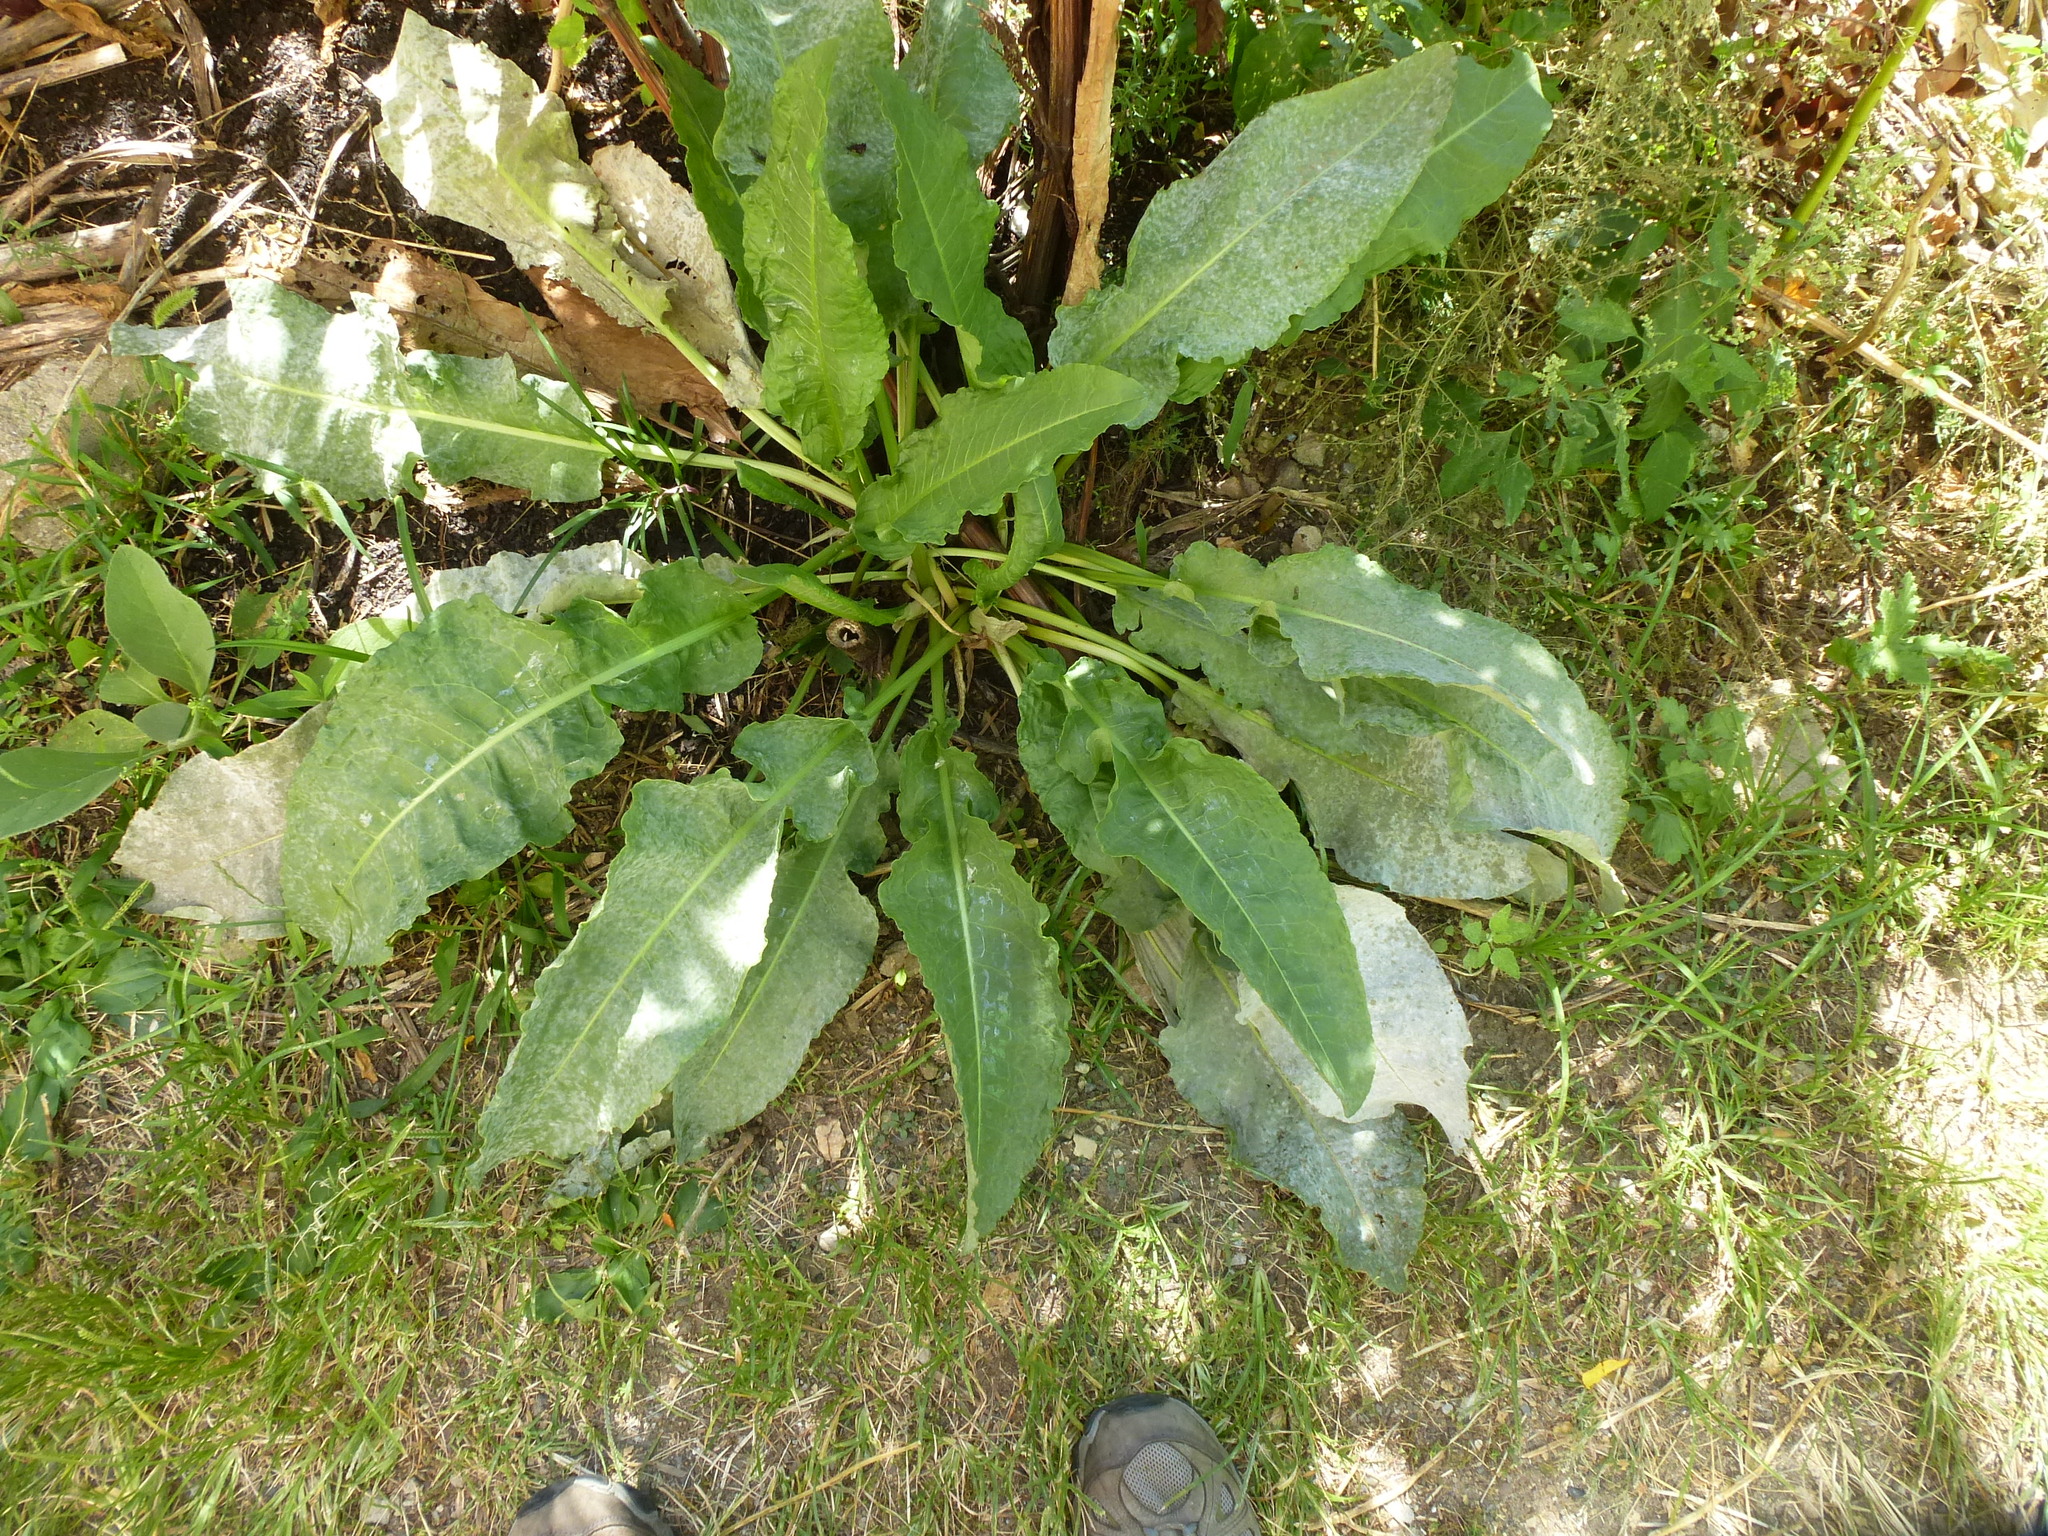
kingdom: Plantae
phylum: Tracheophyta
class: Magnoliopsida
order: Caryophyllales
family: Polygonaceae
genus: Rumex
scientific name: Rumex crispus
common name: Curled dock
